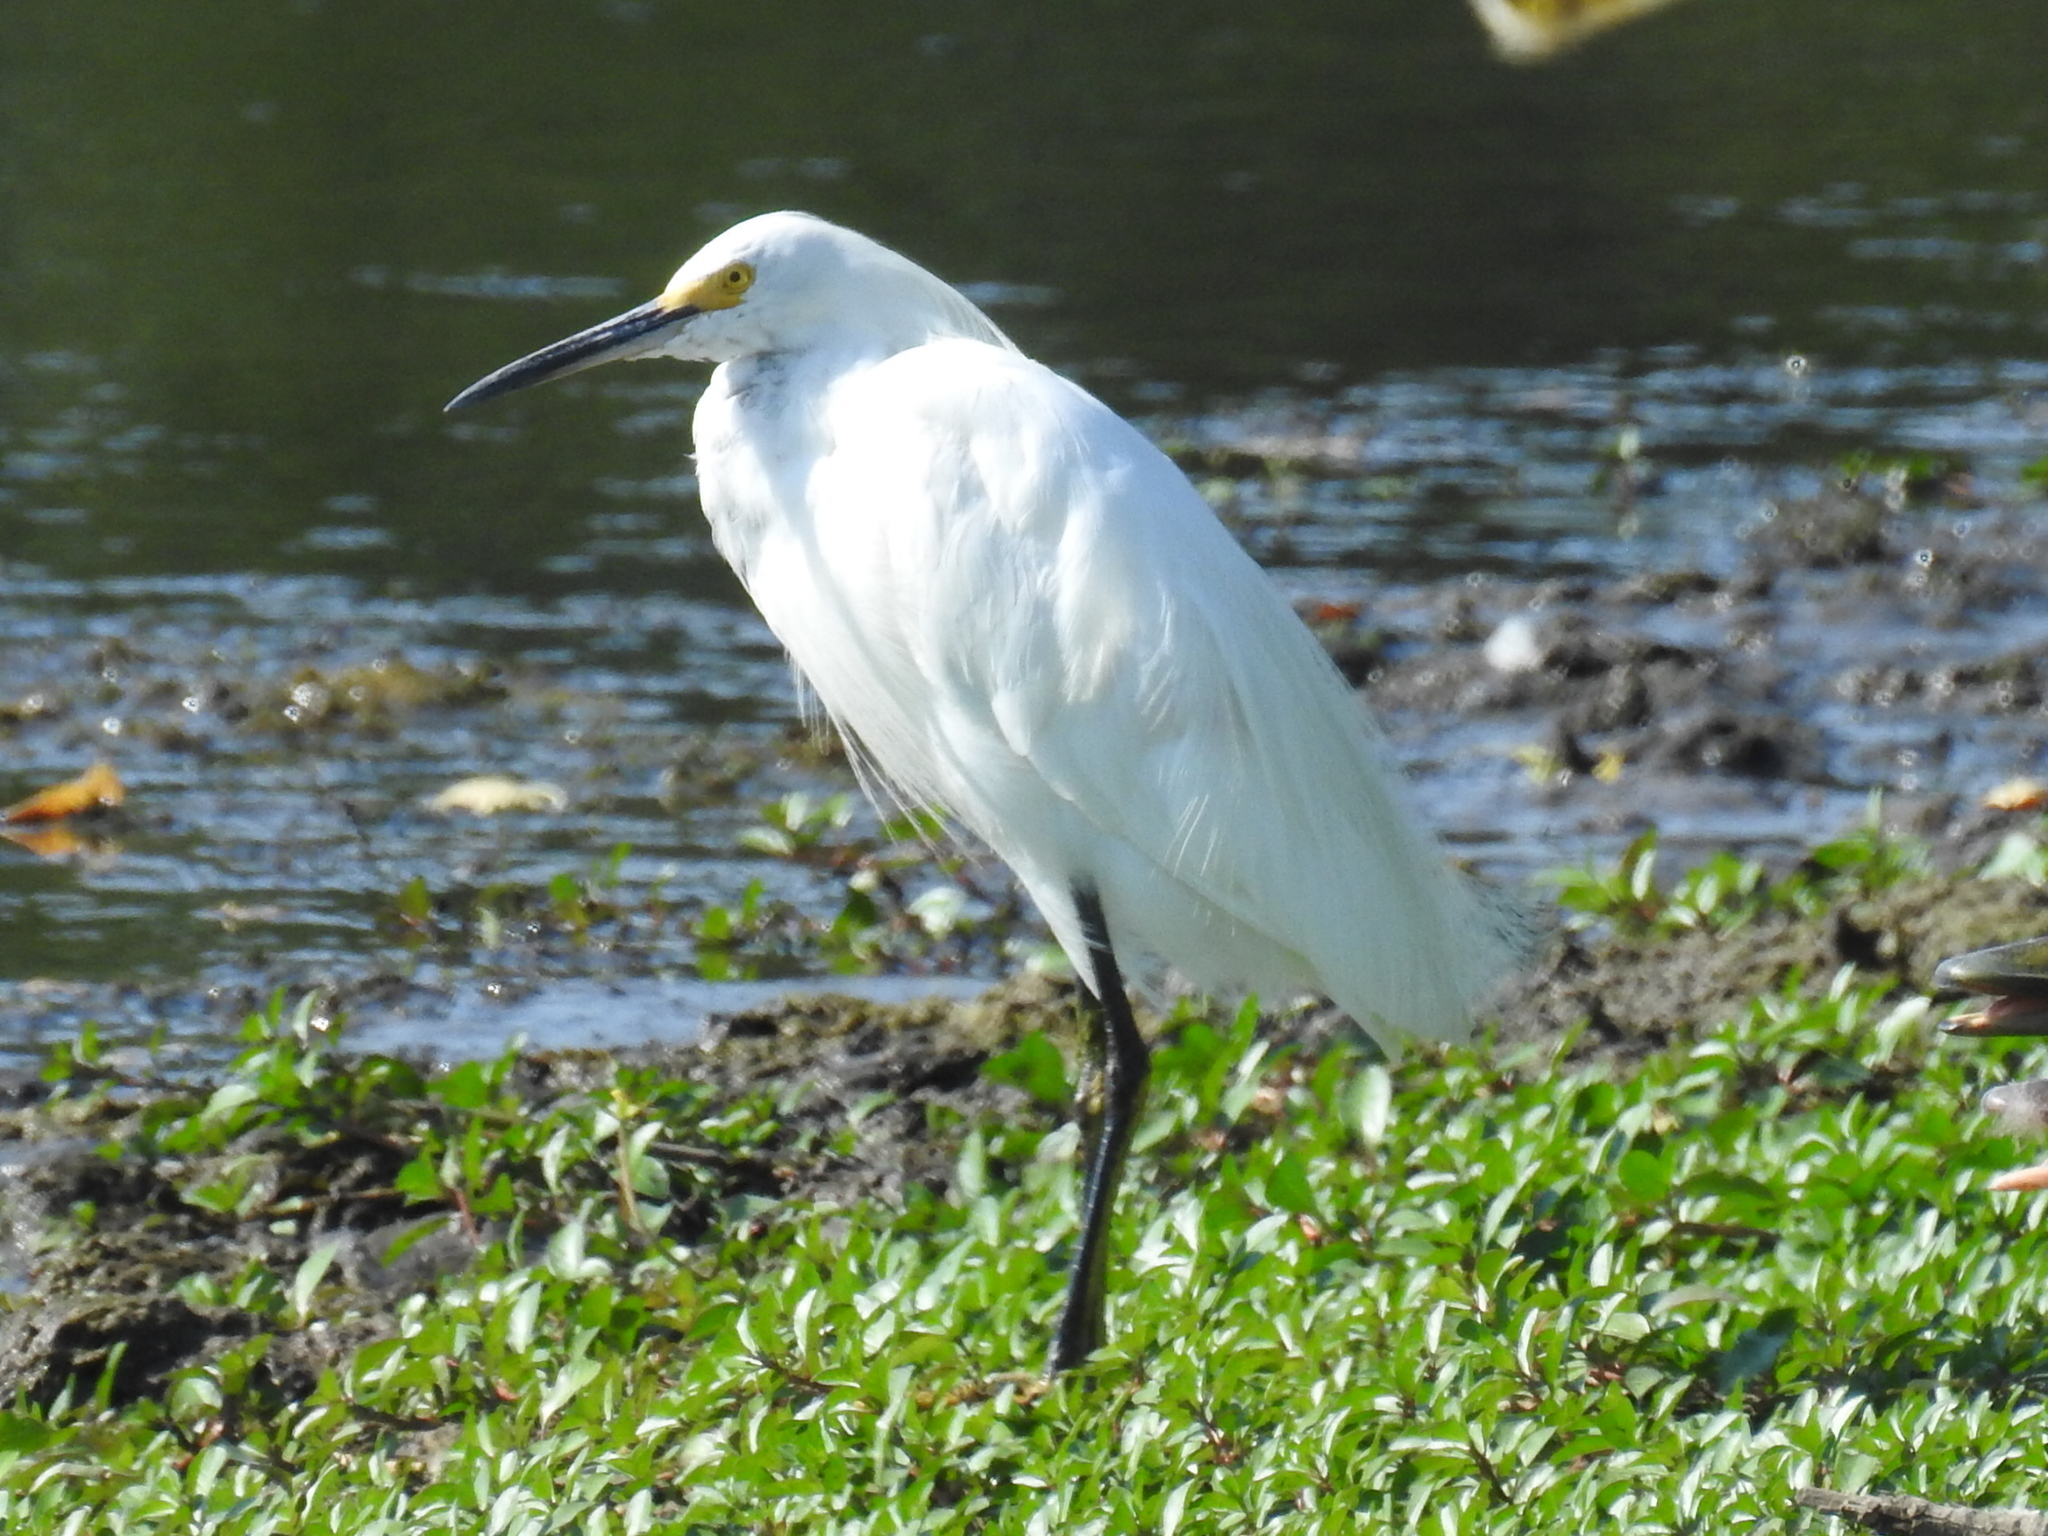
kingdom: Animalia
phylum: Chordata
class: Aves
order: Pelecaniformes
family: Ardeidae
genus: Egretta
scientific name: Egretta thula
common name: Snowy egret
